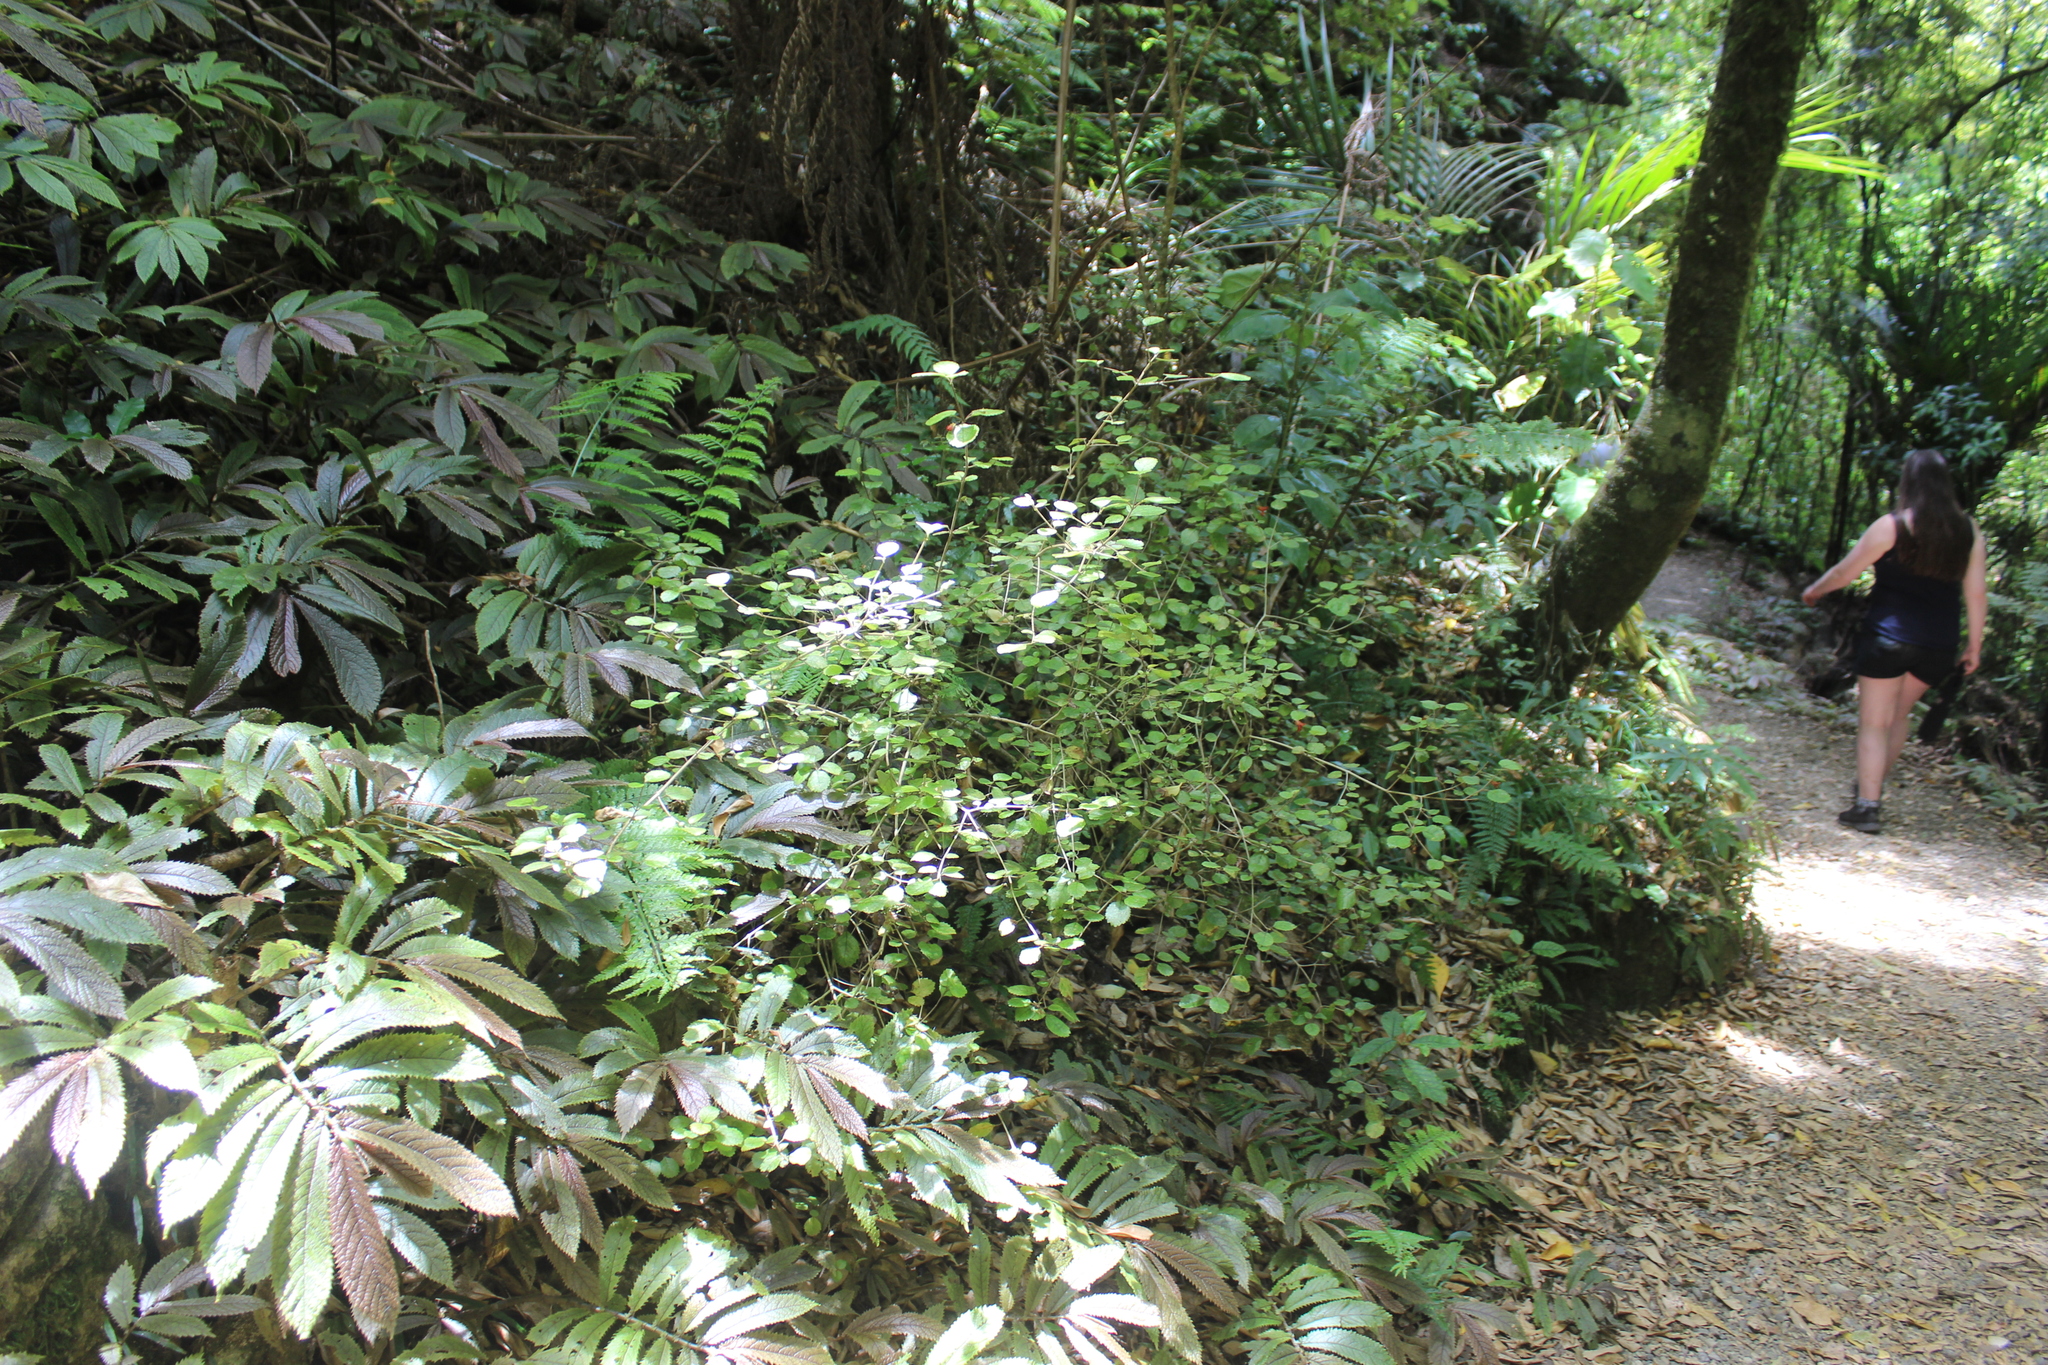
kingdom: Plantae
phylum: Tracheophyta
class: Magnoliopsida
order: Lamiales
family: Gesneriaceae
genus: Rhabdothamnus
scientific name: Rhabdothamnus solandri
